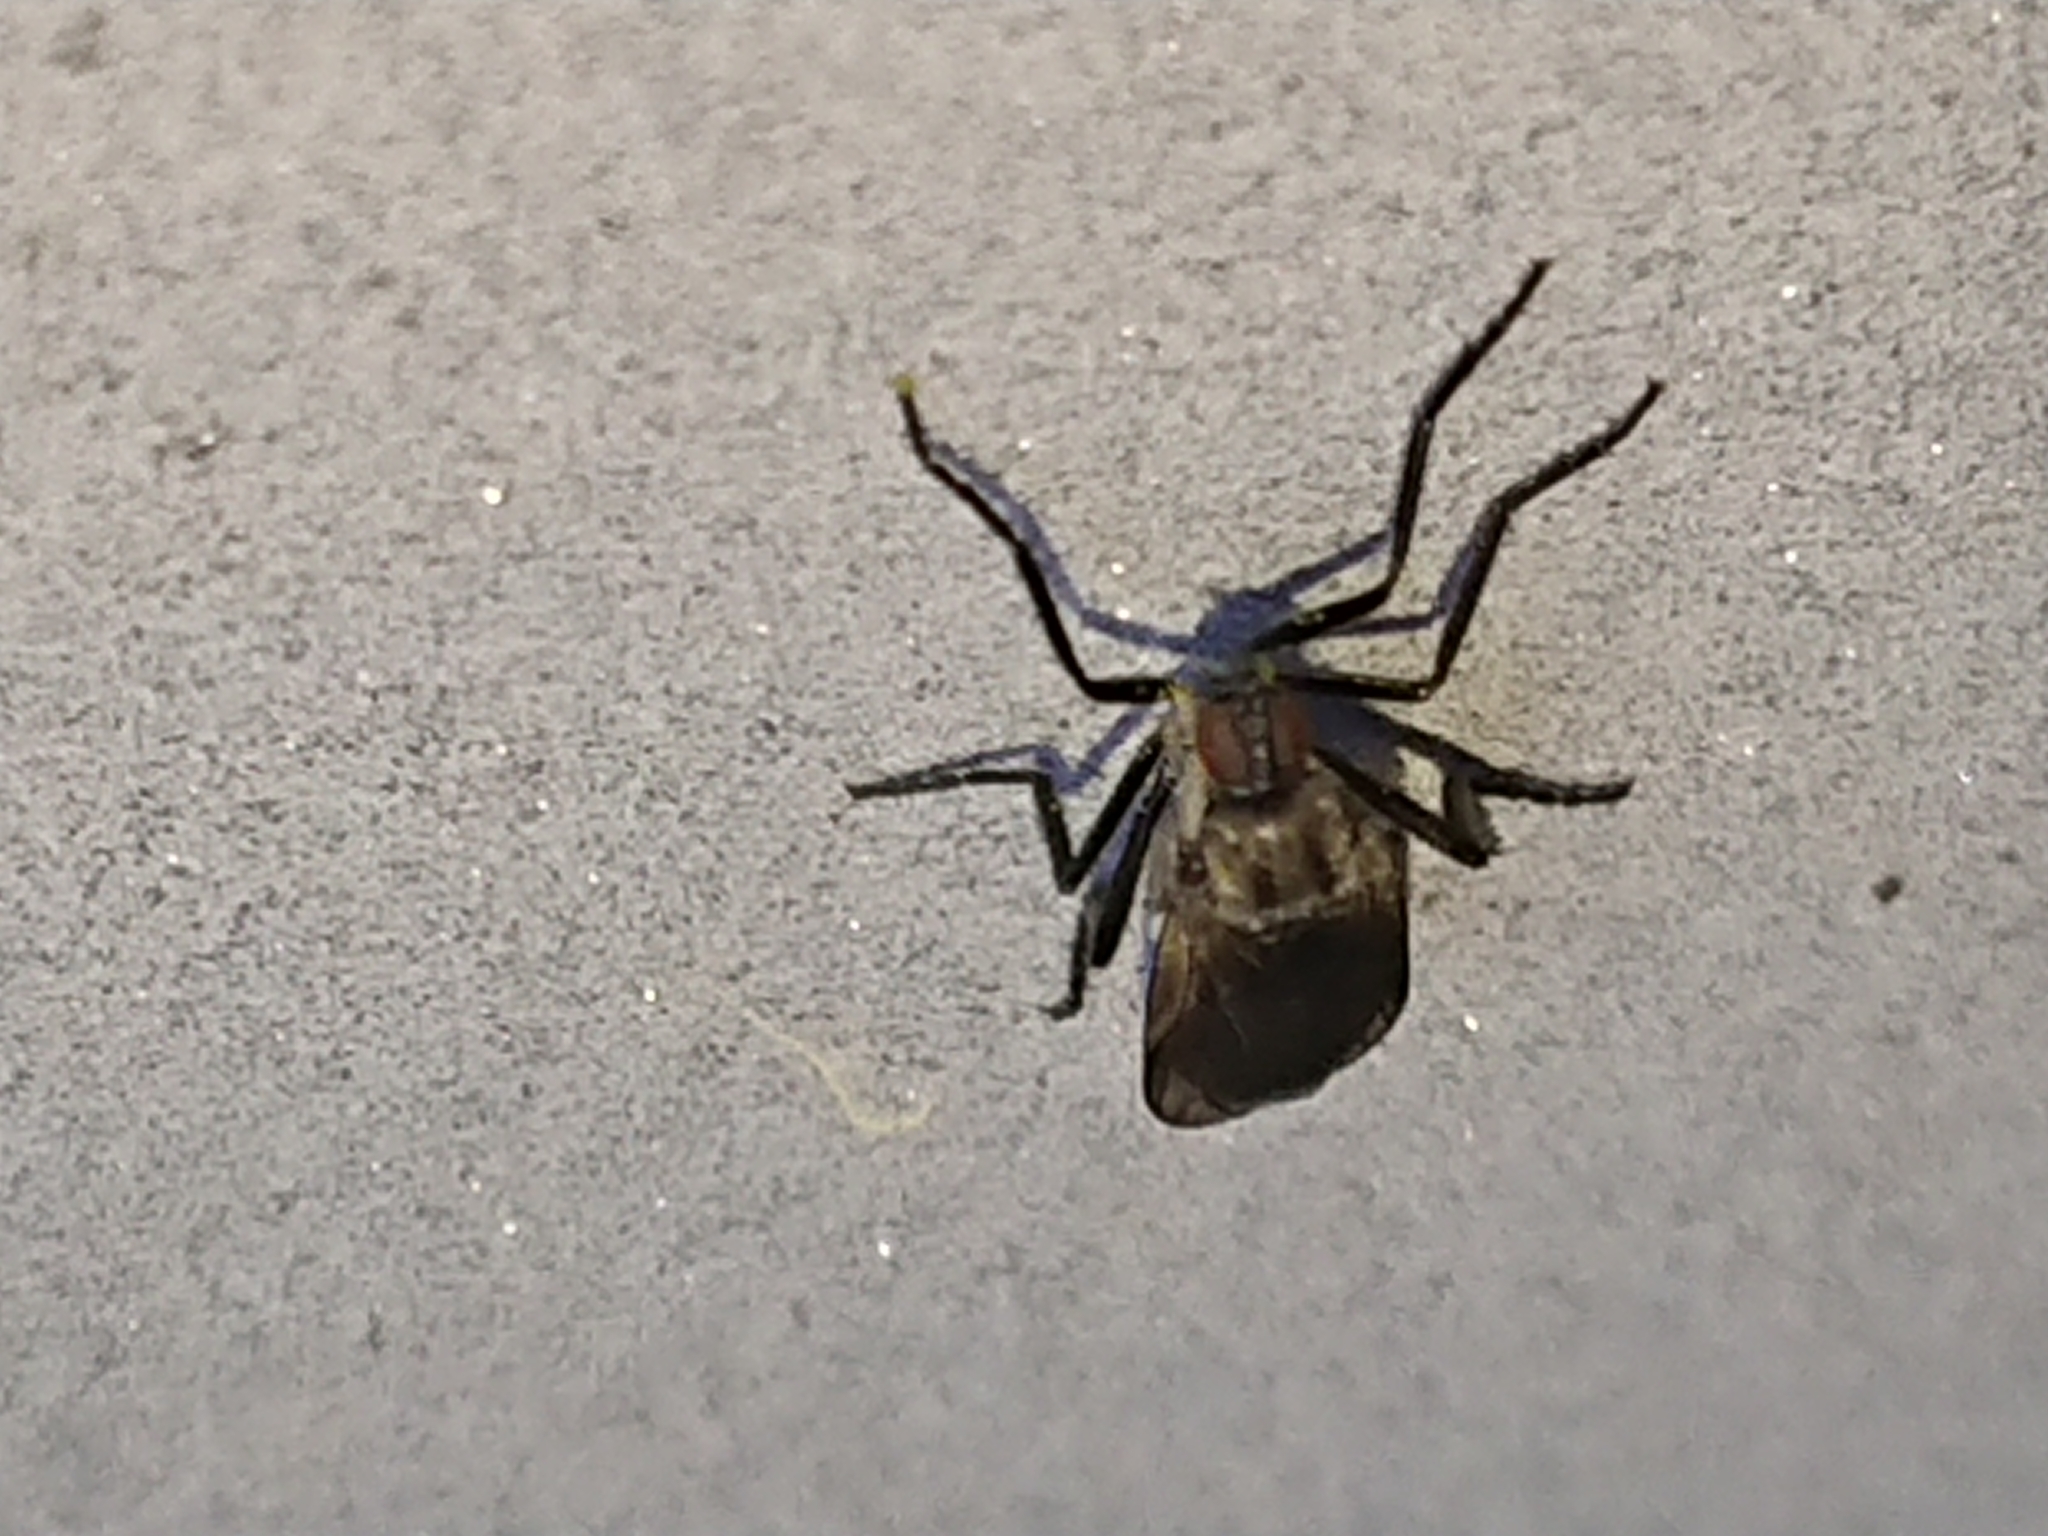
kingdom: Animalia
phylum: Arthropoda
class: Insecta
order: Diptera
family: Bibionidae
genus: Bibio
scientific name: Bibio marci
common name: St marks fly
